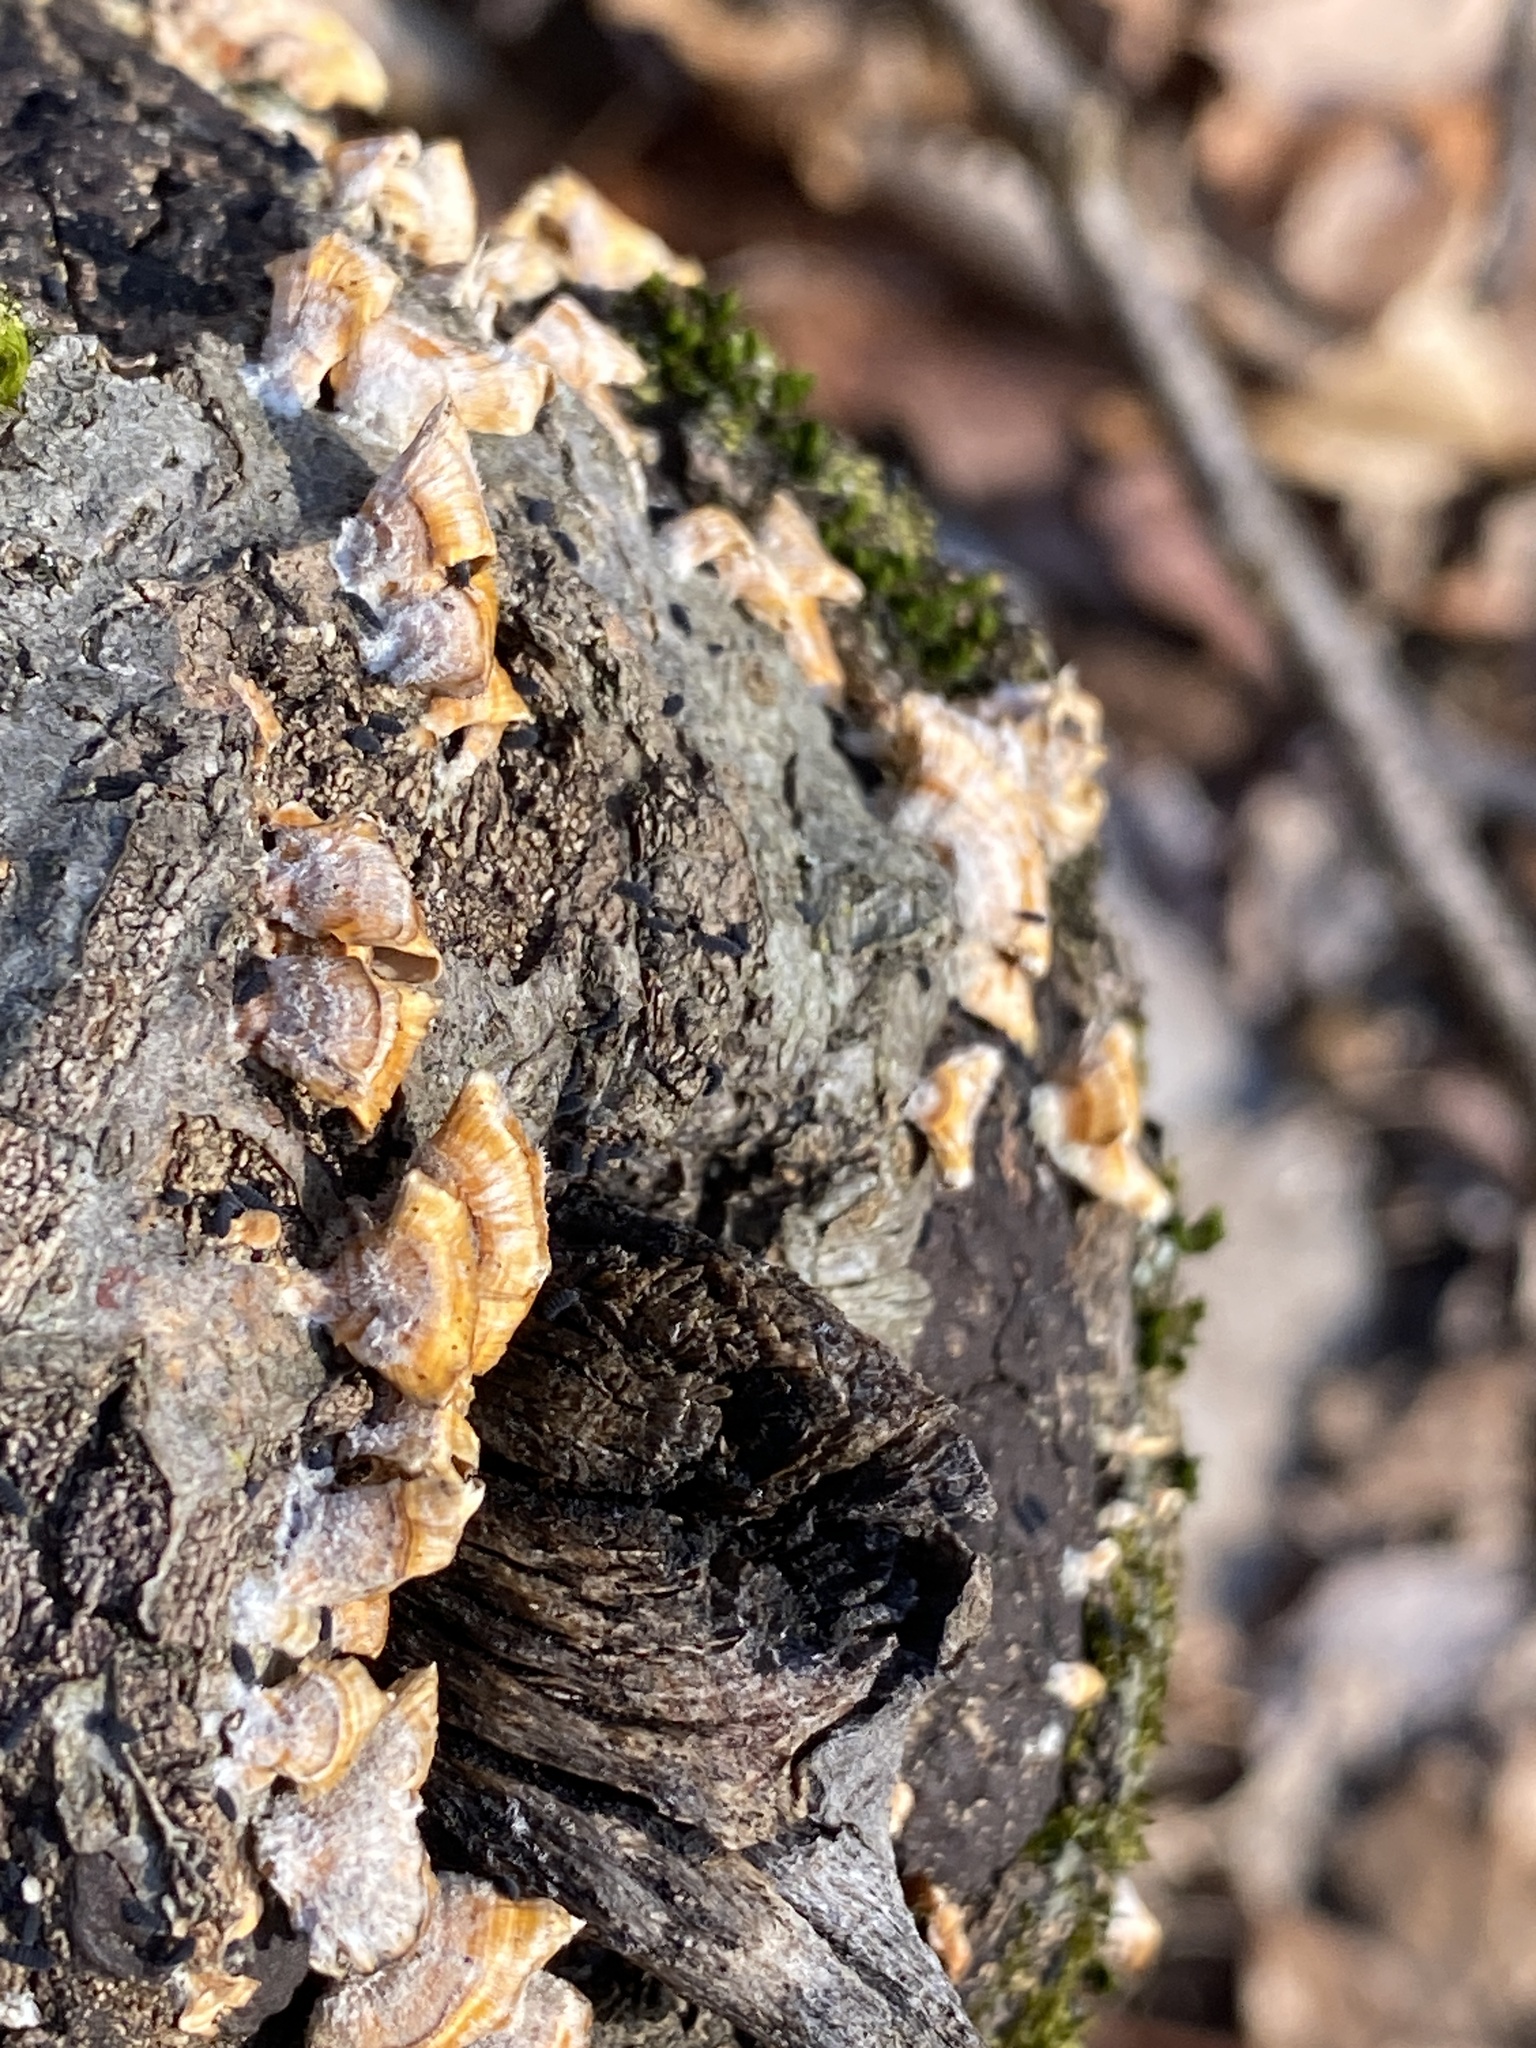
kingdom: Fungi
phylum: Basidiomycota
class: Agaricomycetes
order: Russulales
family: Stereaceae
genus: Stereum
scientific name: Stereum complicatum
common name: Crowded parchment
